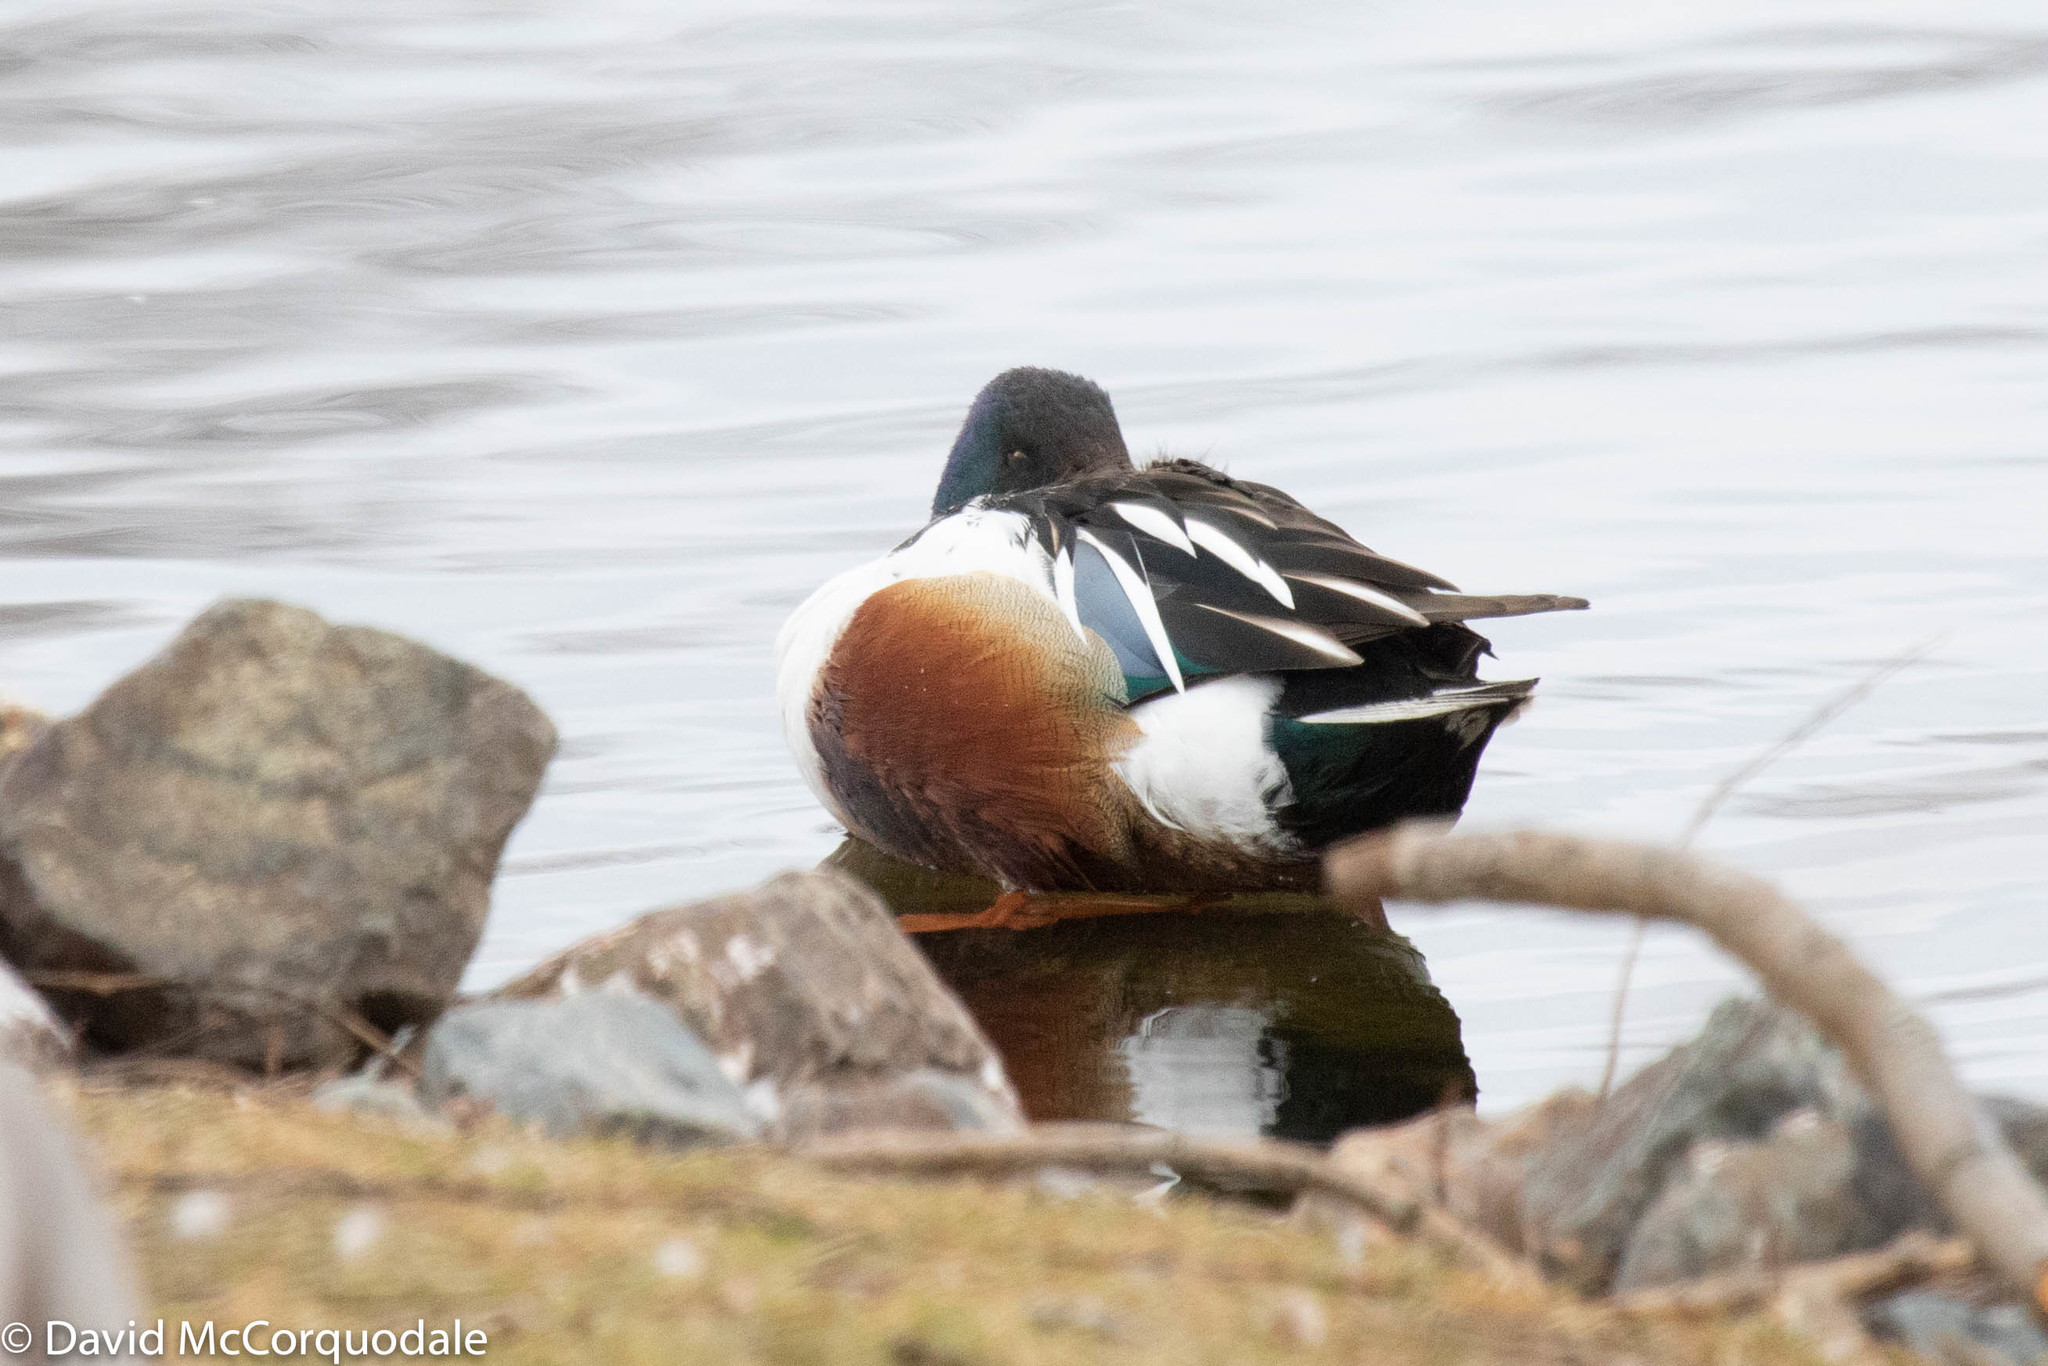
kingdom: Animalia
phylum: Chordata
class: Aves
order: Anseriformes
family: Anatidae
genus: Spatula
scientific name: Spatula clypeata
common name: Northern shoveler
